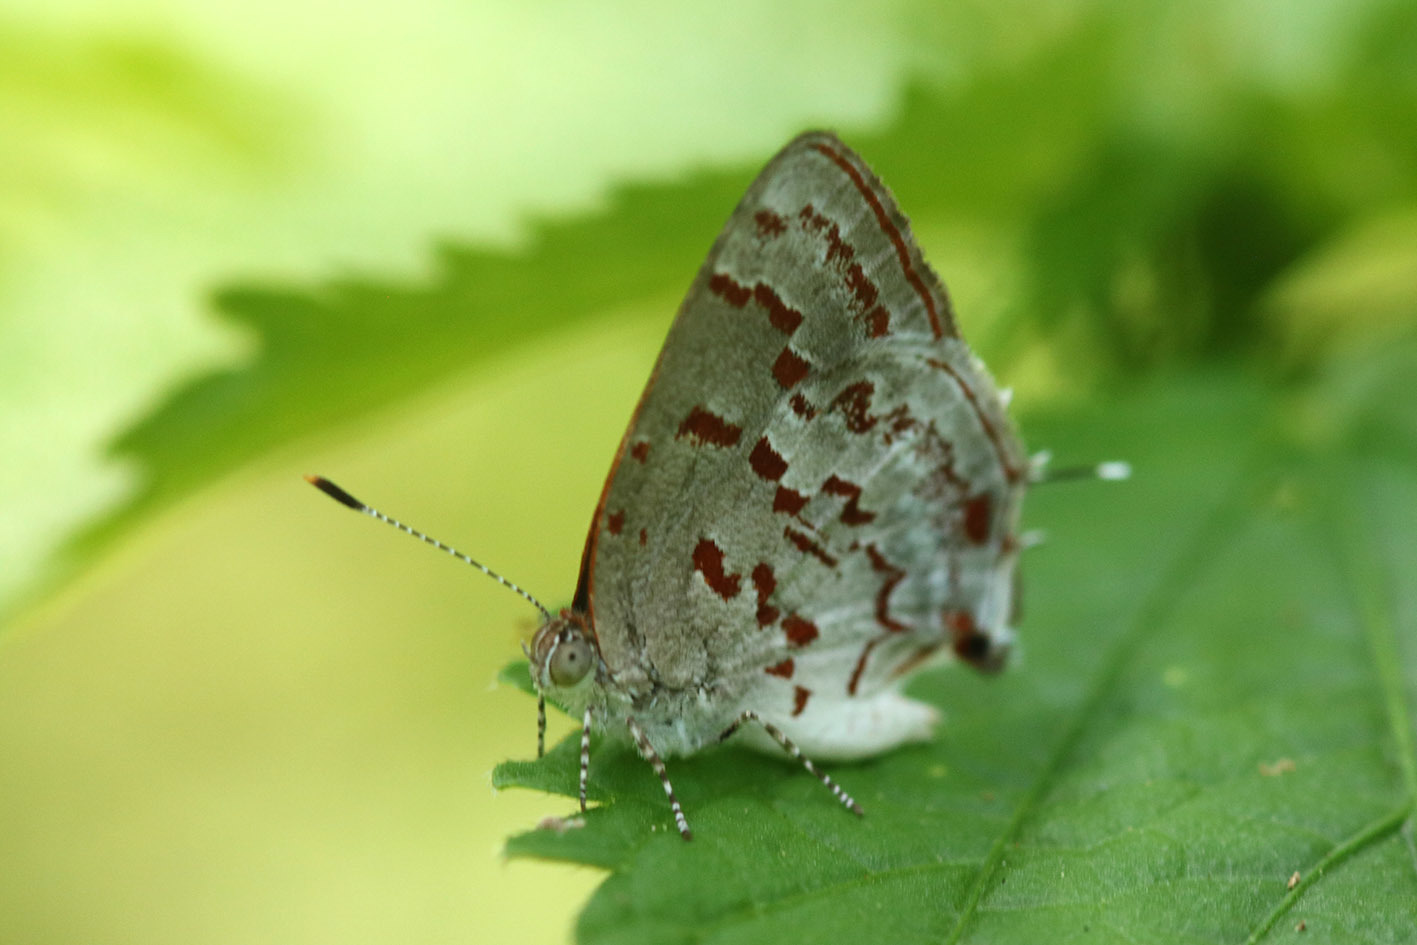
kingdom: Animalia
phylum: Arthropoda
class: Insecta
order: Lepidoptera
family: Lycaenidae
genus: Thecla
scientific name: Thecla cruenta
